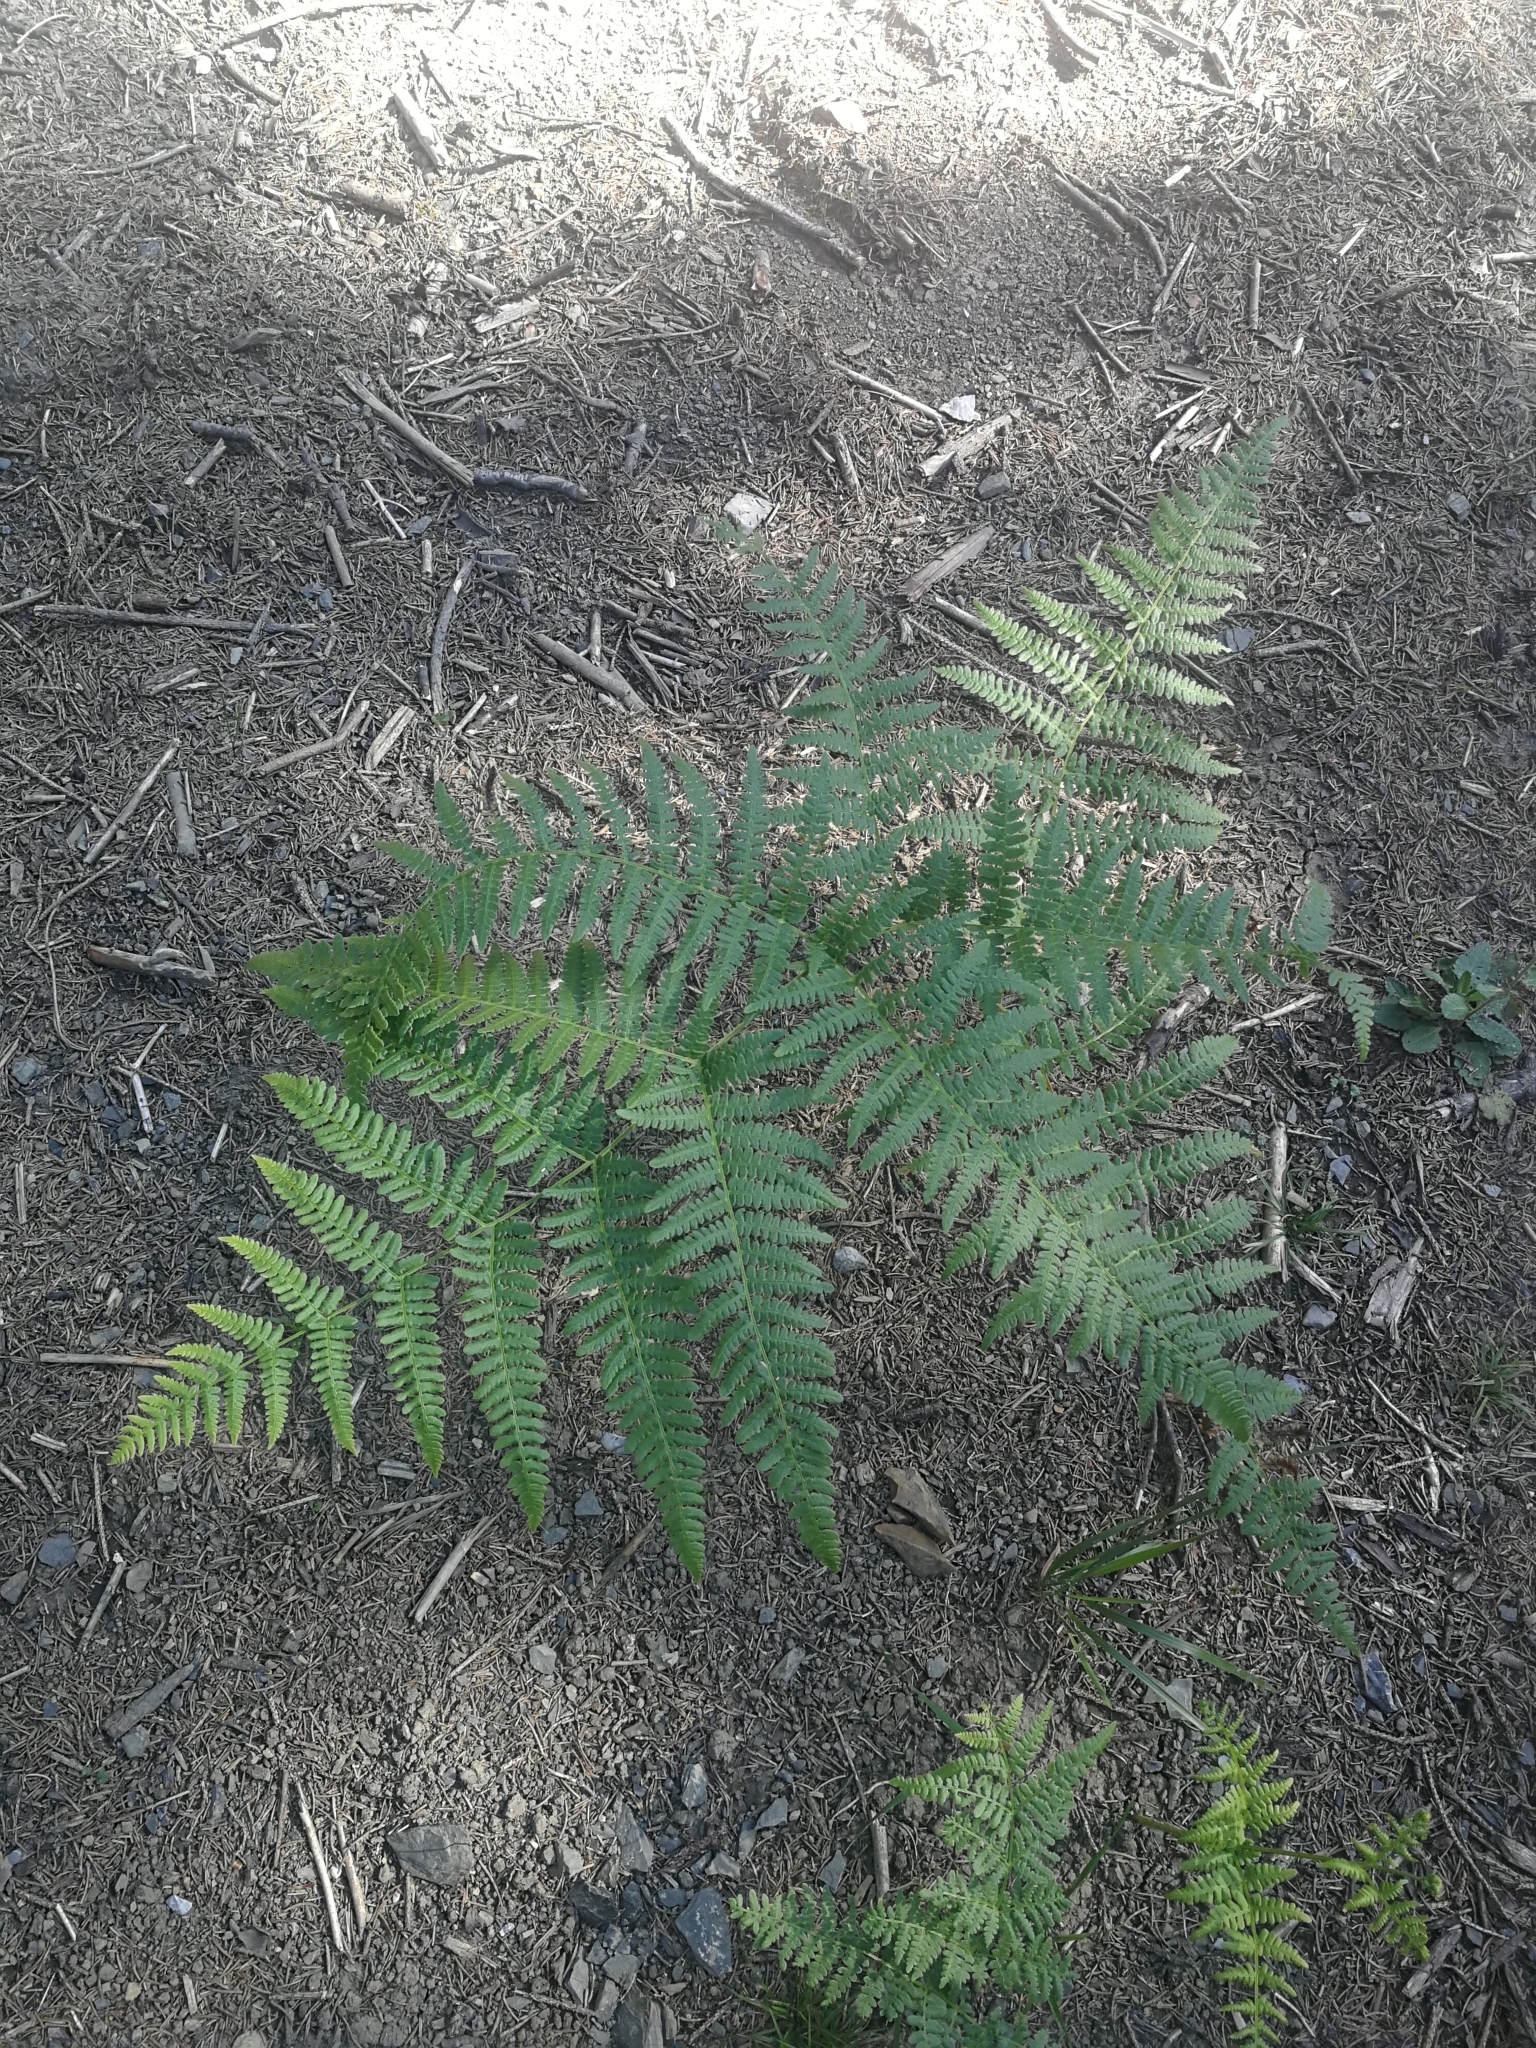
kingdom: Plantae
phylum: Tracheophyta
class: Polypodiopsida
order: Polypodiales
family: Dennstaedtiaceae
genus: Pteridium
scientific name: Pteridium aquilinum
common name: Bracken
